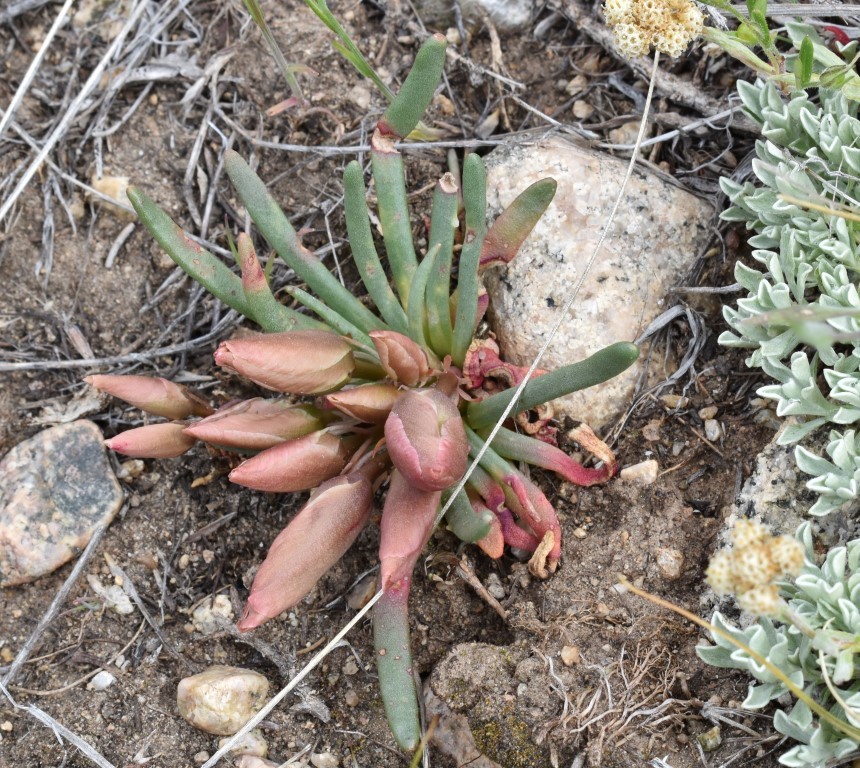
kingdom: Plantae
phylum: Tracheophyta
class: Magnoliopsida
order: Caryophyllales
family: Montiaceae
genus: Lewisia
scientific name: Lewisia rediviva
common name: Bitter-root
